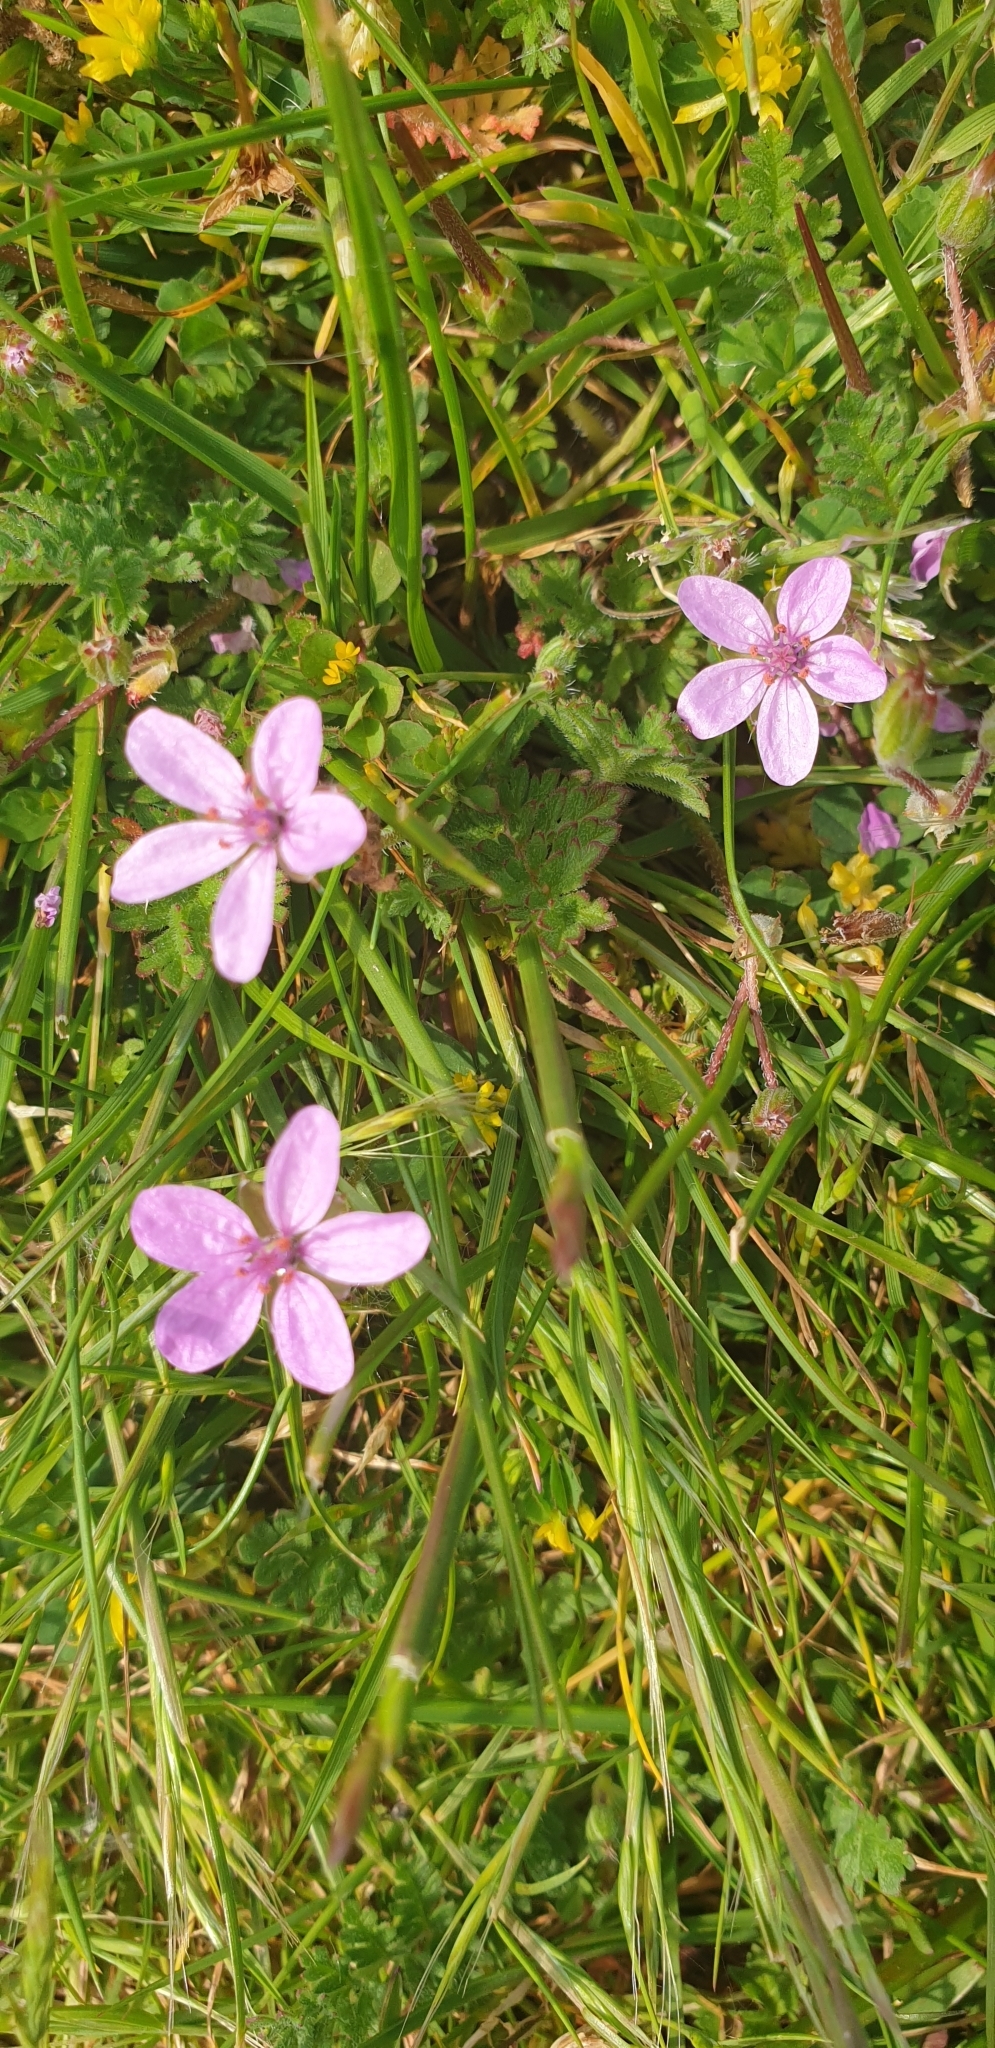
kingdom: Plantae
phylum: Tracheophyta
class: Magnoliopsida
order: Geraniales
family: Geraniaceae
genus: Erodium
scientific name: Erodium cicutarium
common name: Common stork's-bill
